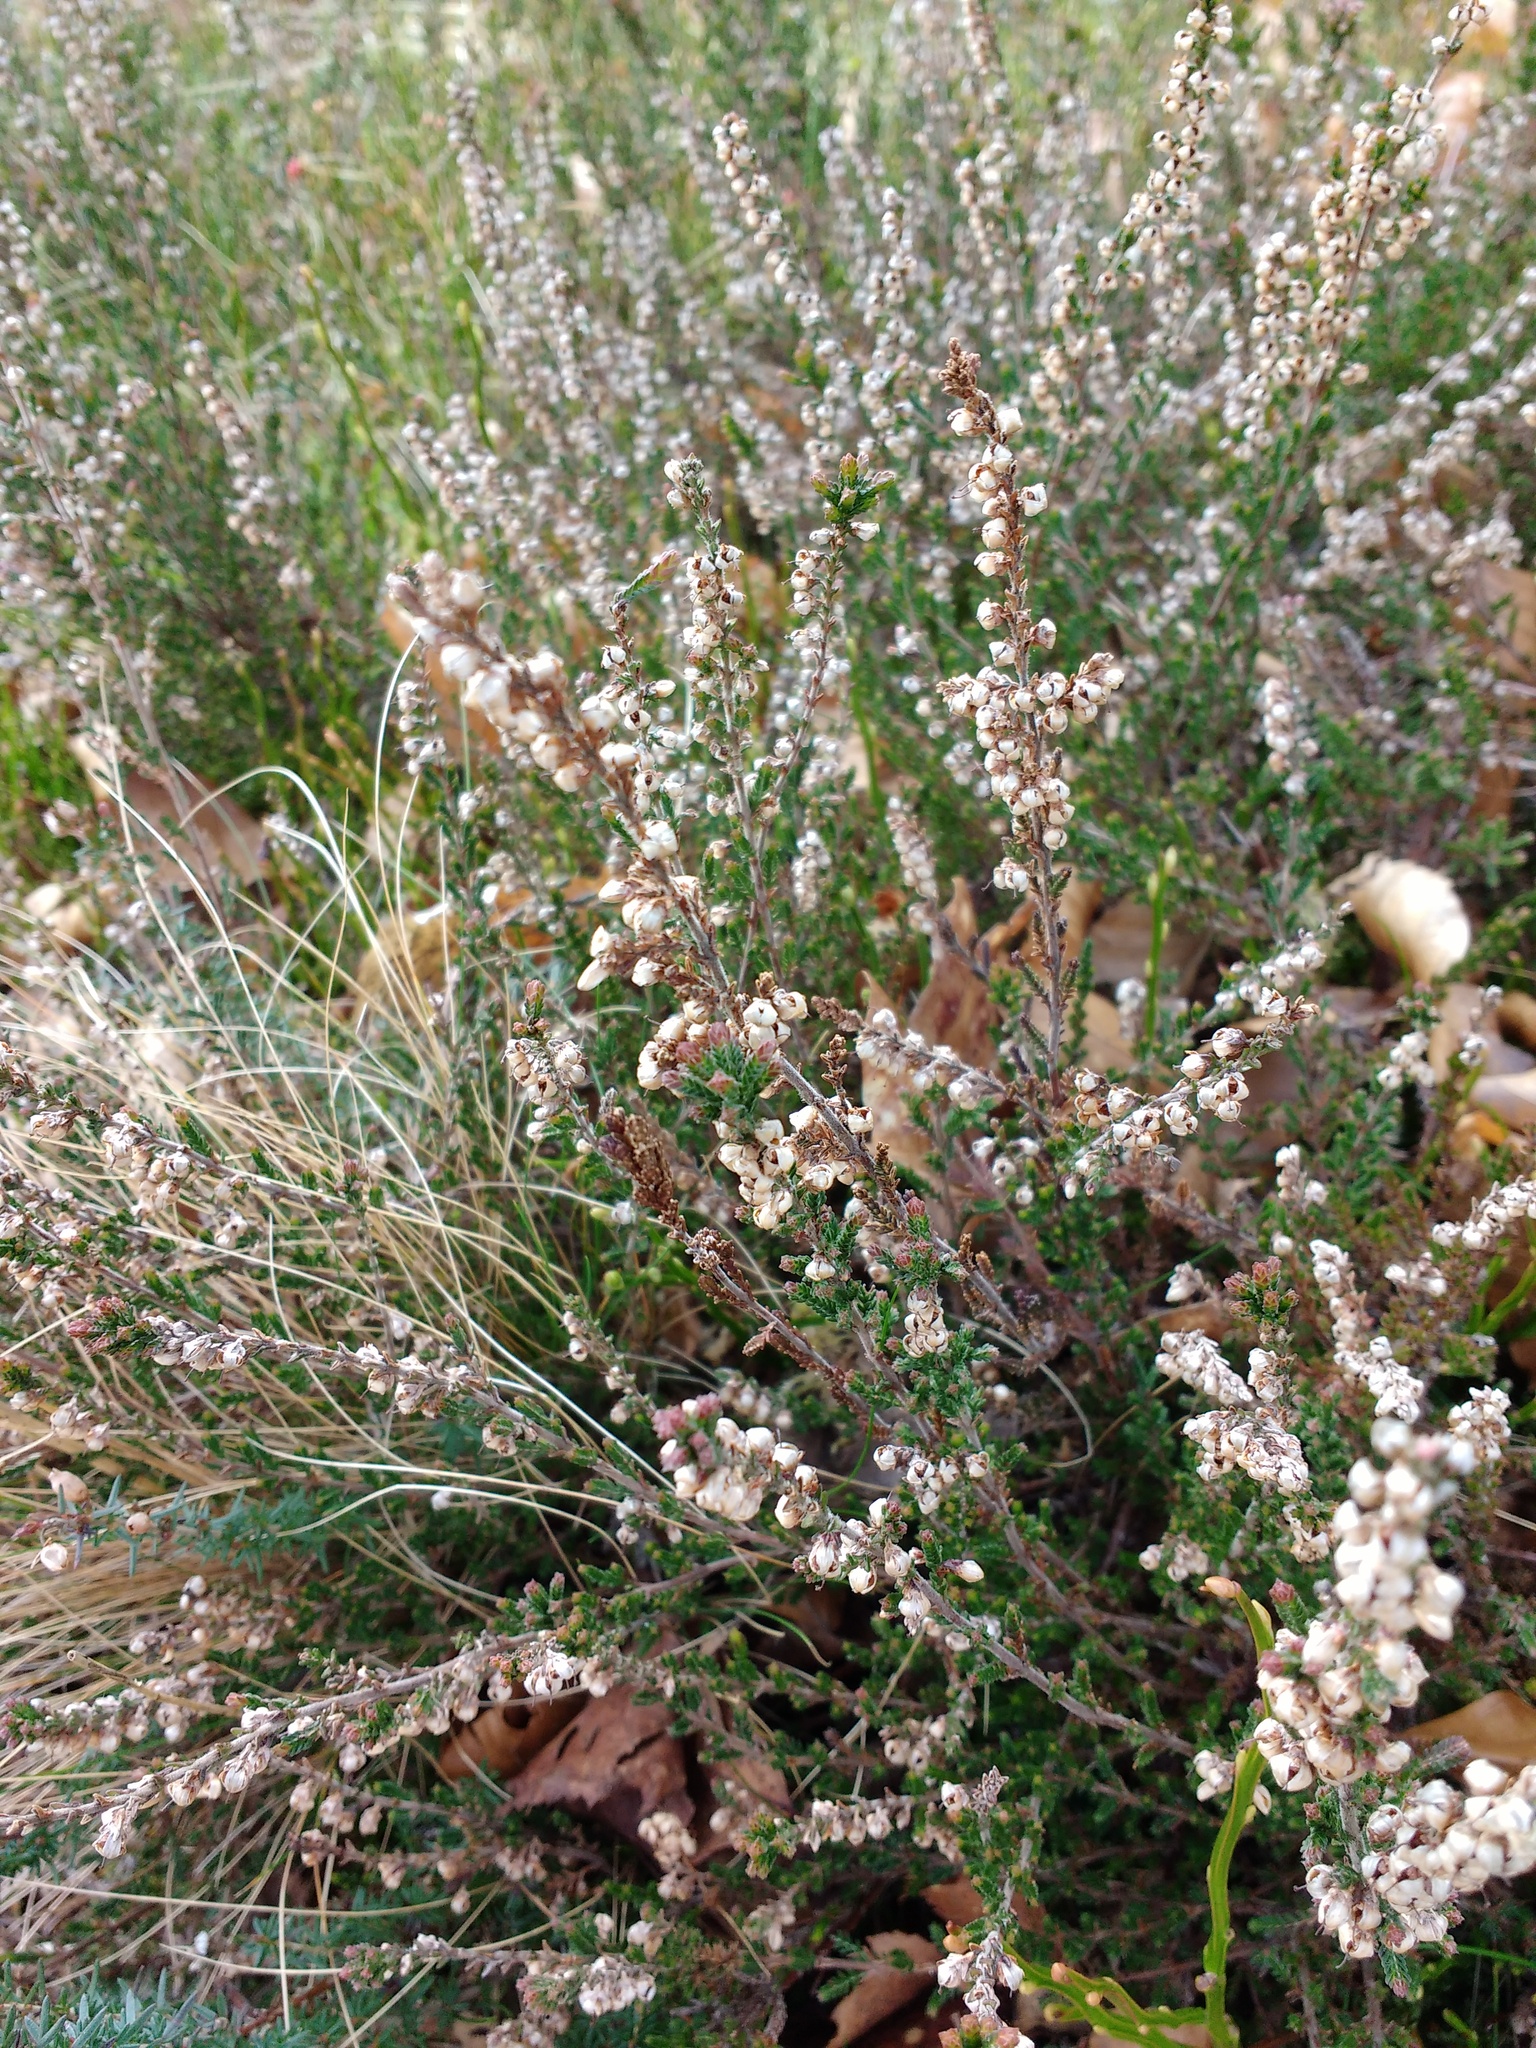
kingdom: Plantae
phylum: Tracheophyta
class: Magnoliopsida
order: Ericales
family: Ericaceae
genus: Calluna
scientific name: Calluna vulgaris
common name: Heather
